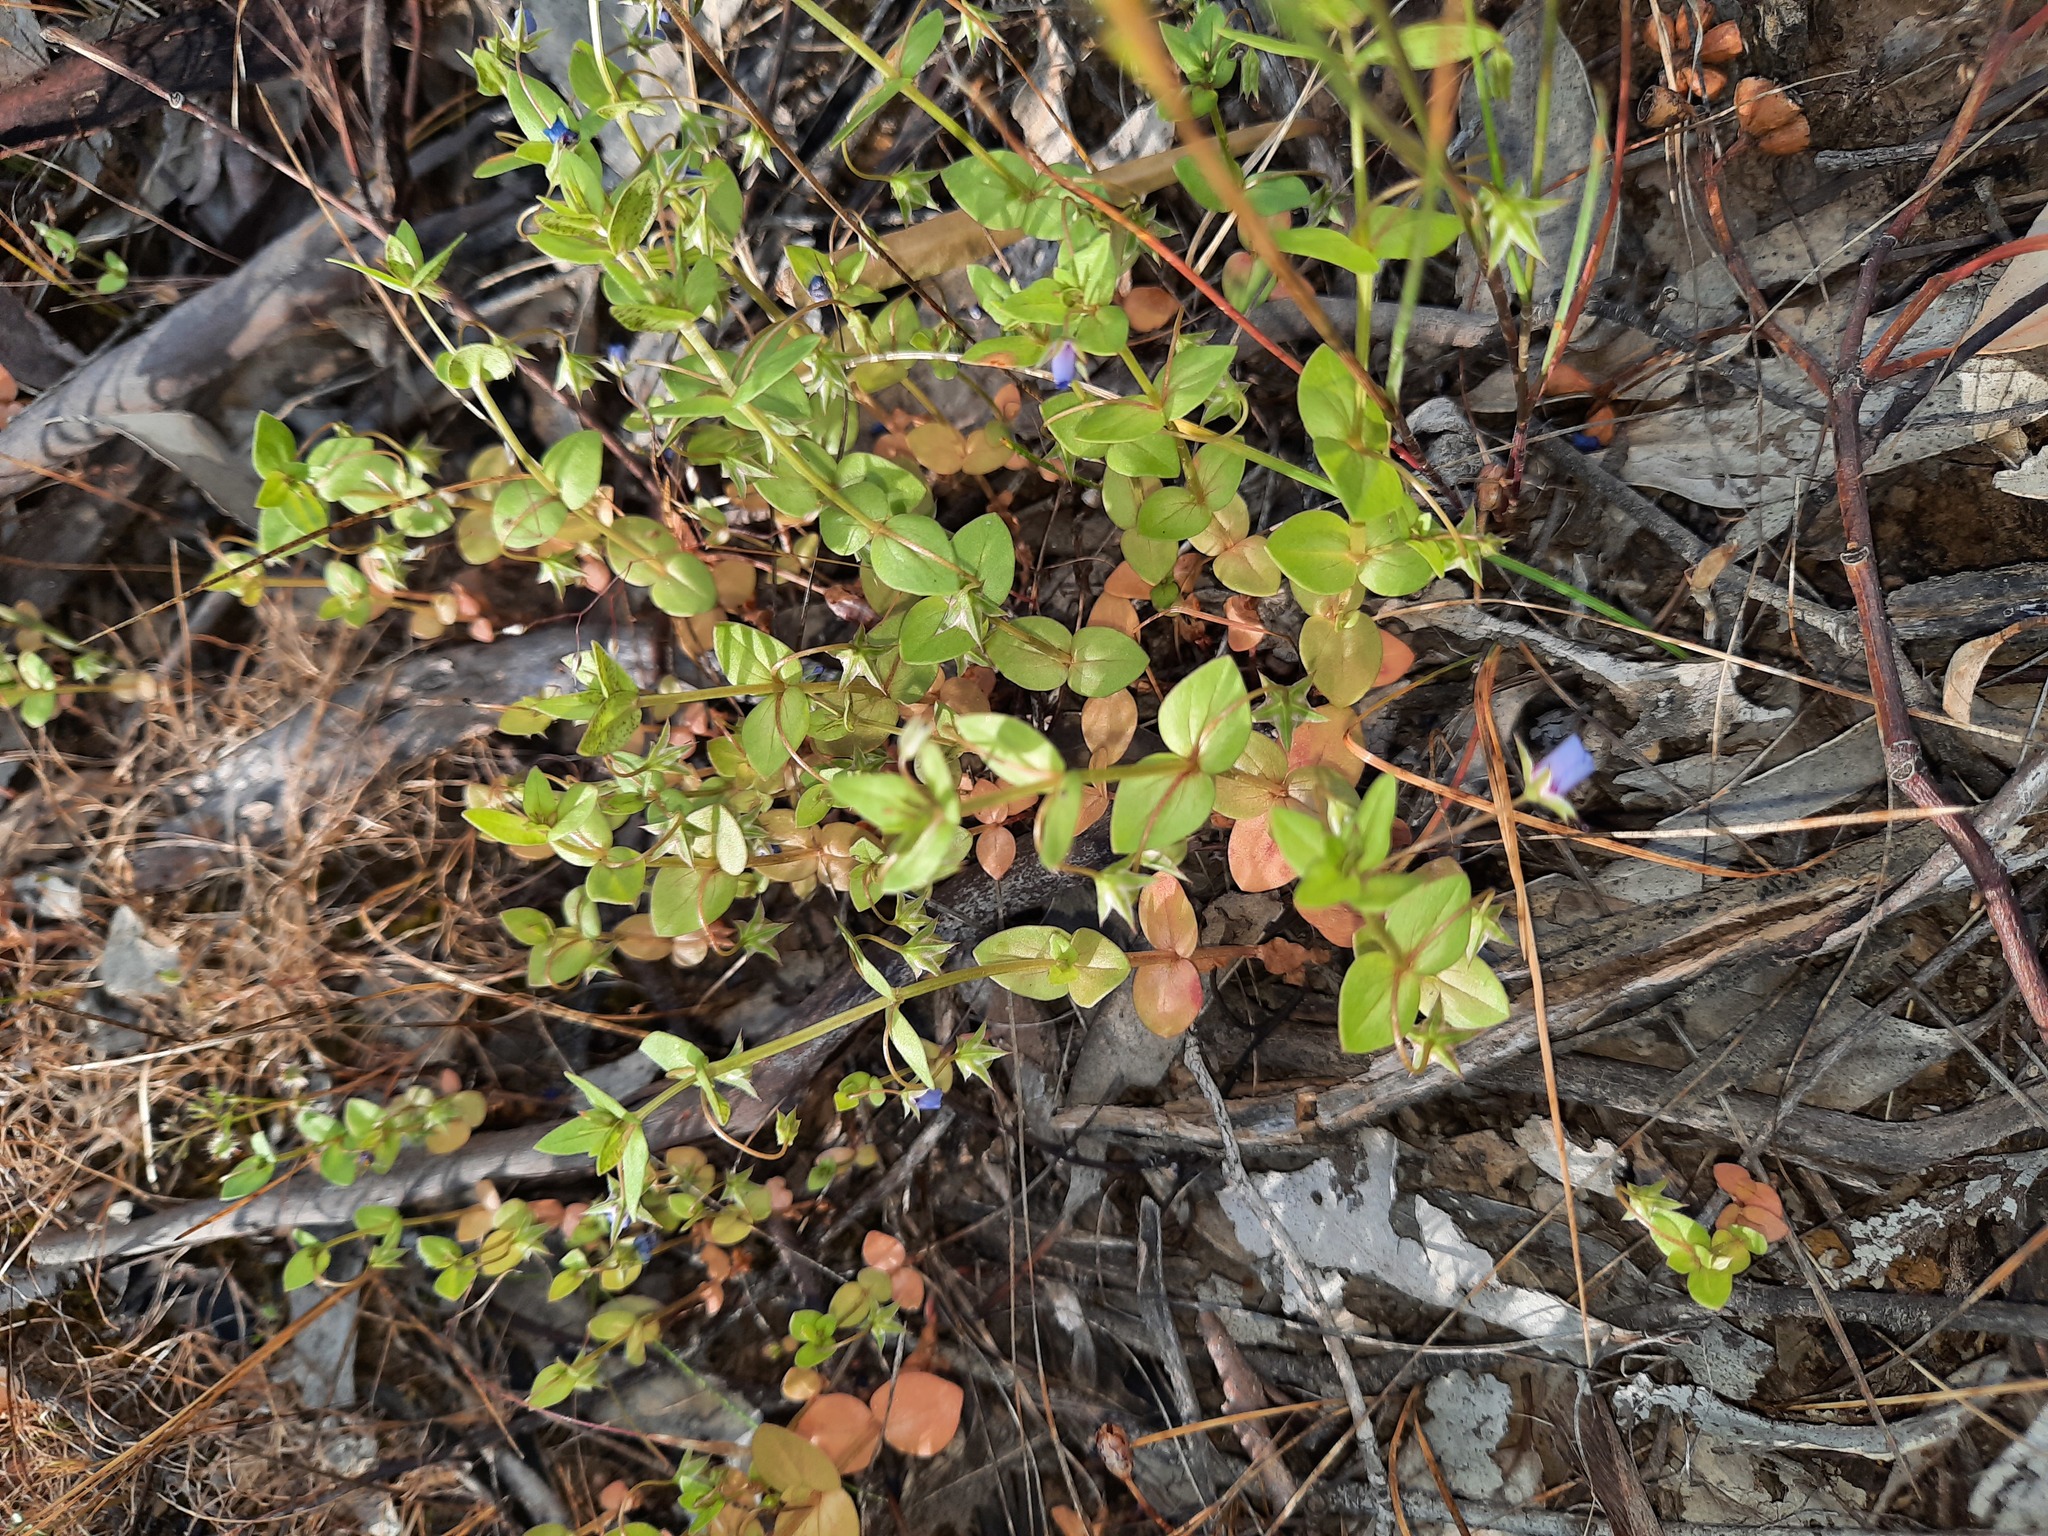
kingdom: Plantae
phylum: Tracheophyta
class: Magnoliopsida
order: Ericales
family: Primulaceae
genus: Lysimachia
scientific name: Lysimachia loeflingii
